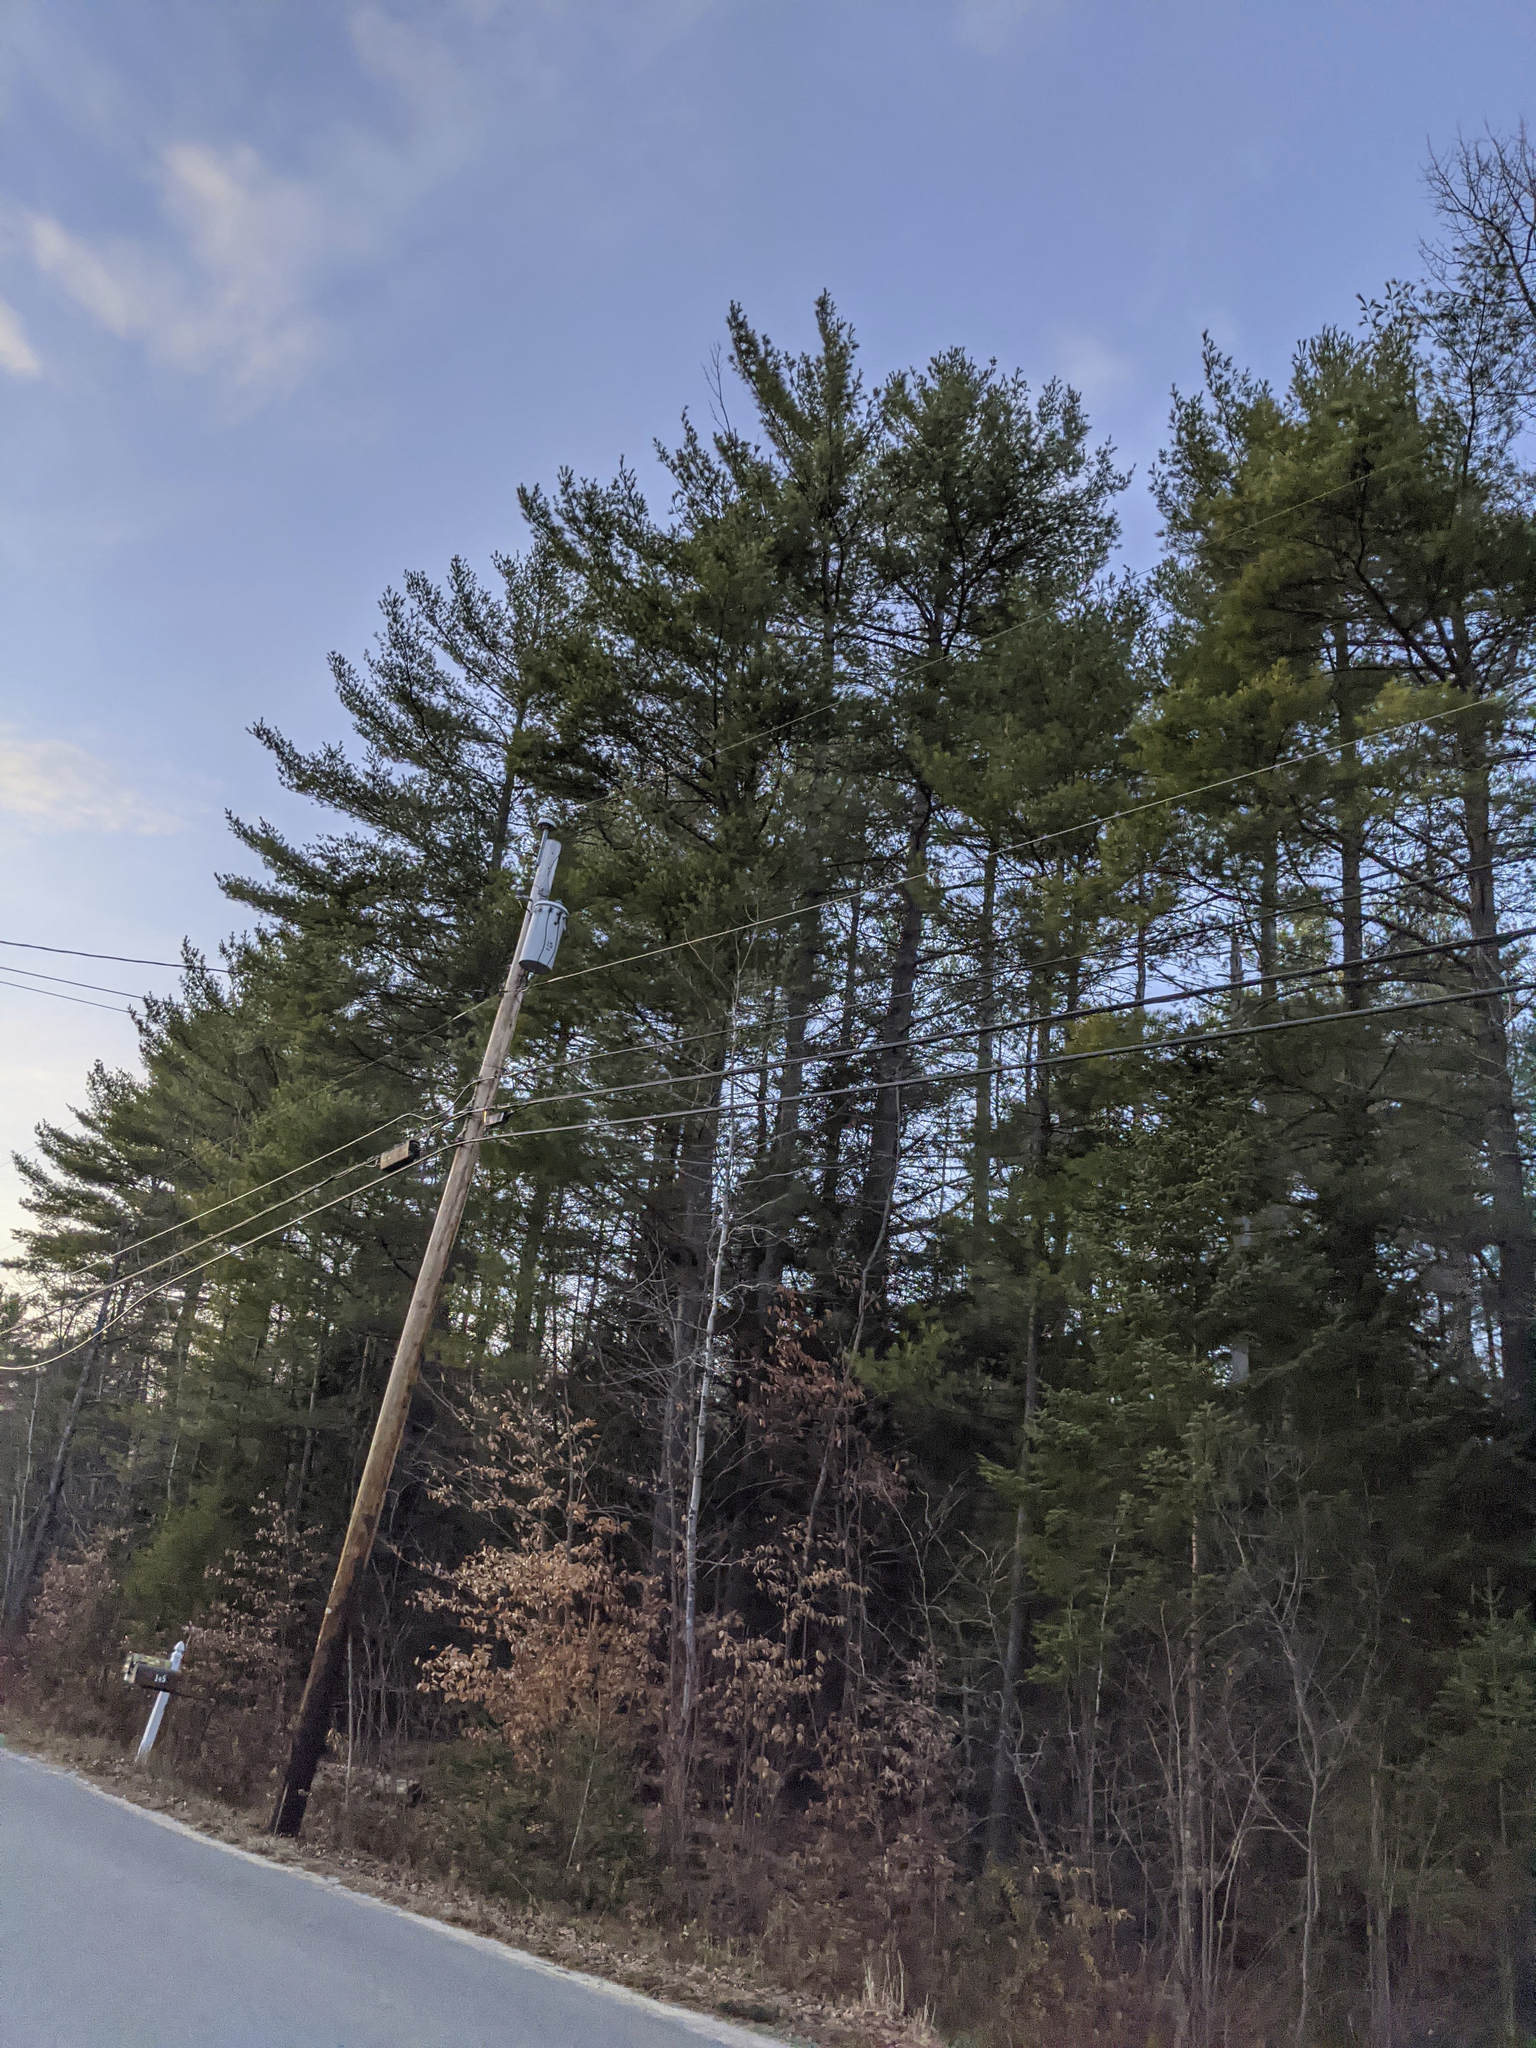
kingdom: Plantae
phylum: Tracheophyta
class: Pinopsida
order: Pinales
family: Pinaceae
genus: Pinus
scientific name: Pinus strobus
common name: Weymouth pine
